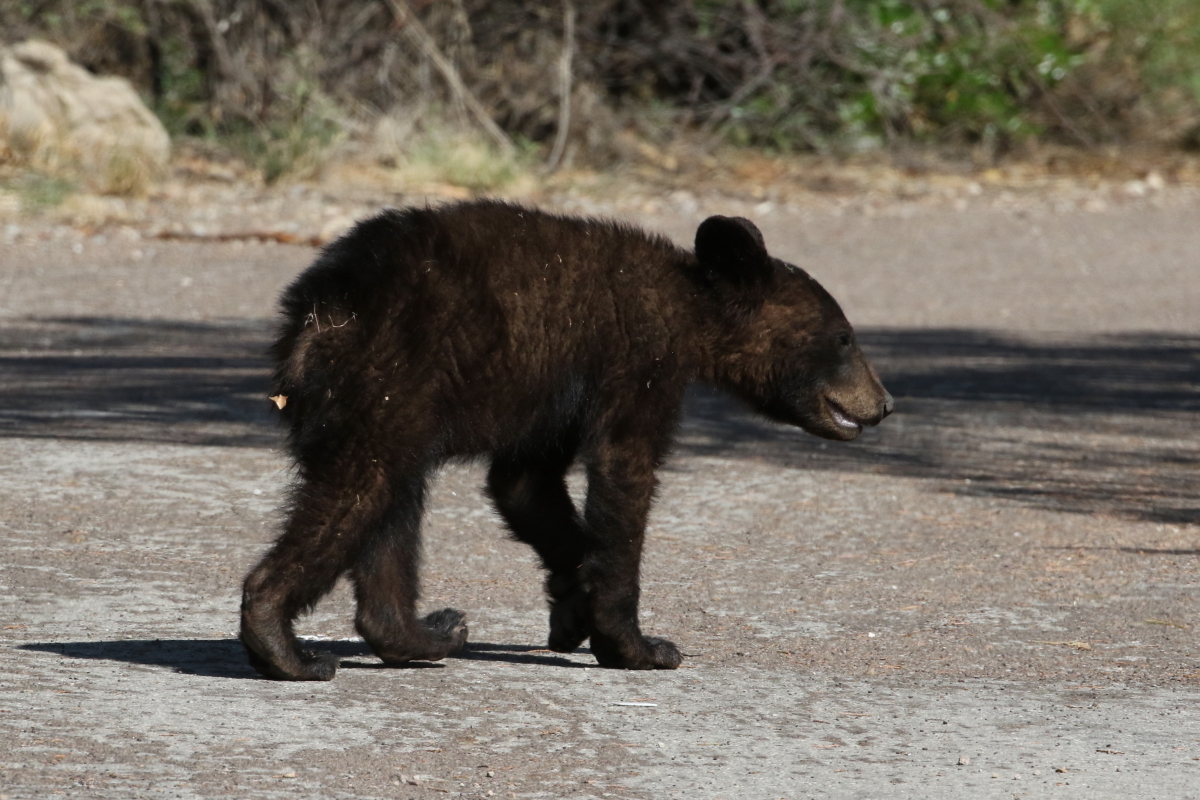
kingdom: Animalia
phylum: Chordata
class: Mammalia
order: Carnivora
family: Ursidae
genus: Ursus
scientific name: Ursus americanus
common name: American black bear
